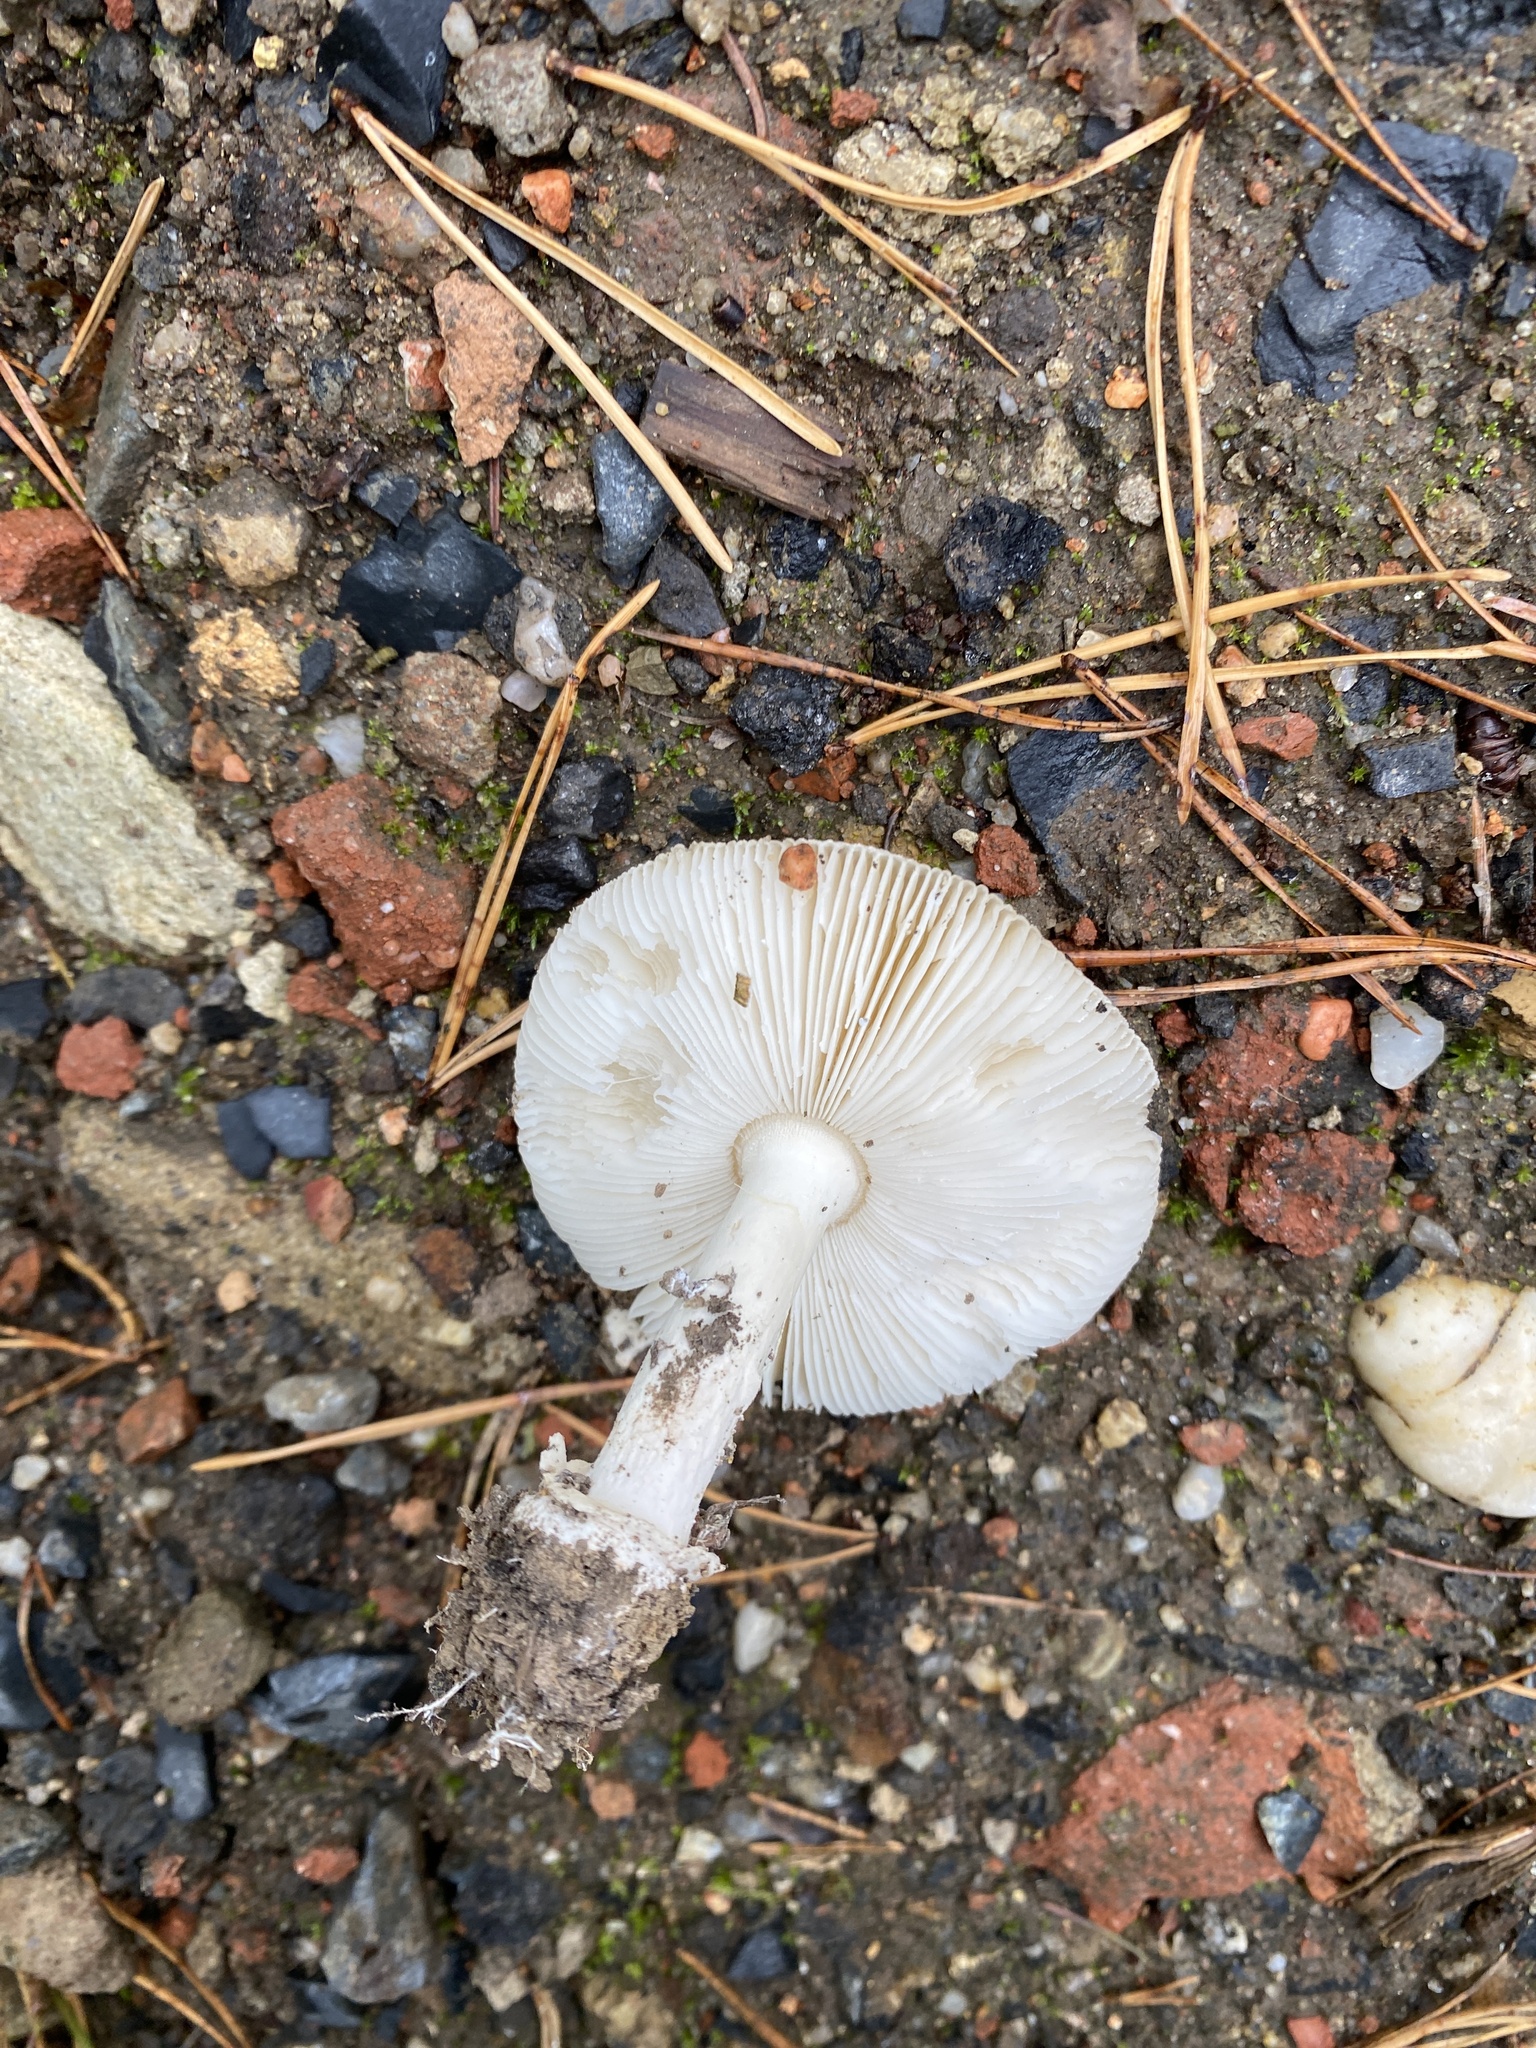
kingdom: Fungi
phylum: Basidiomycota
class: Agaricomycetes
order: Agaricales
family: Amanitaceae
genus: Amanita
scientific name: Amanita gemmata
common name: Jewelled amanita
